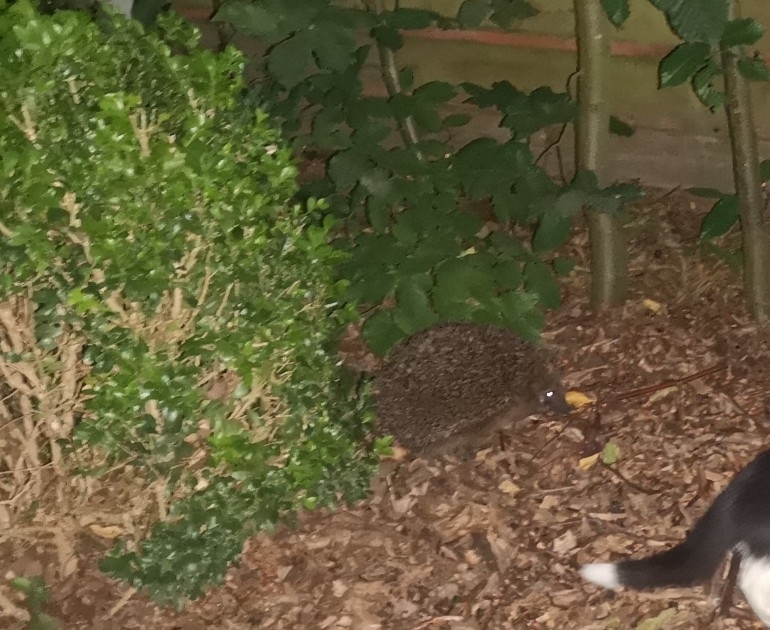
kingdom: Animalia
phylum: Chordata
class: Mammalia
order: Erinaceomorpha
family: Erinaceidae
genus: Erinaceus
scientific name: Erinaceus europaeus
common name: West european hedgehog
